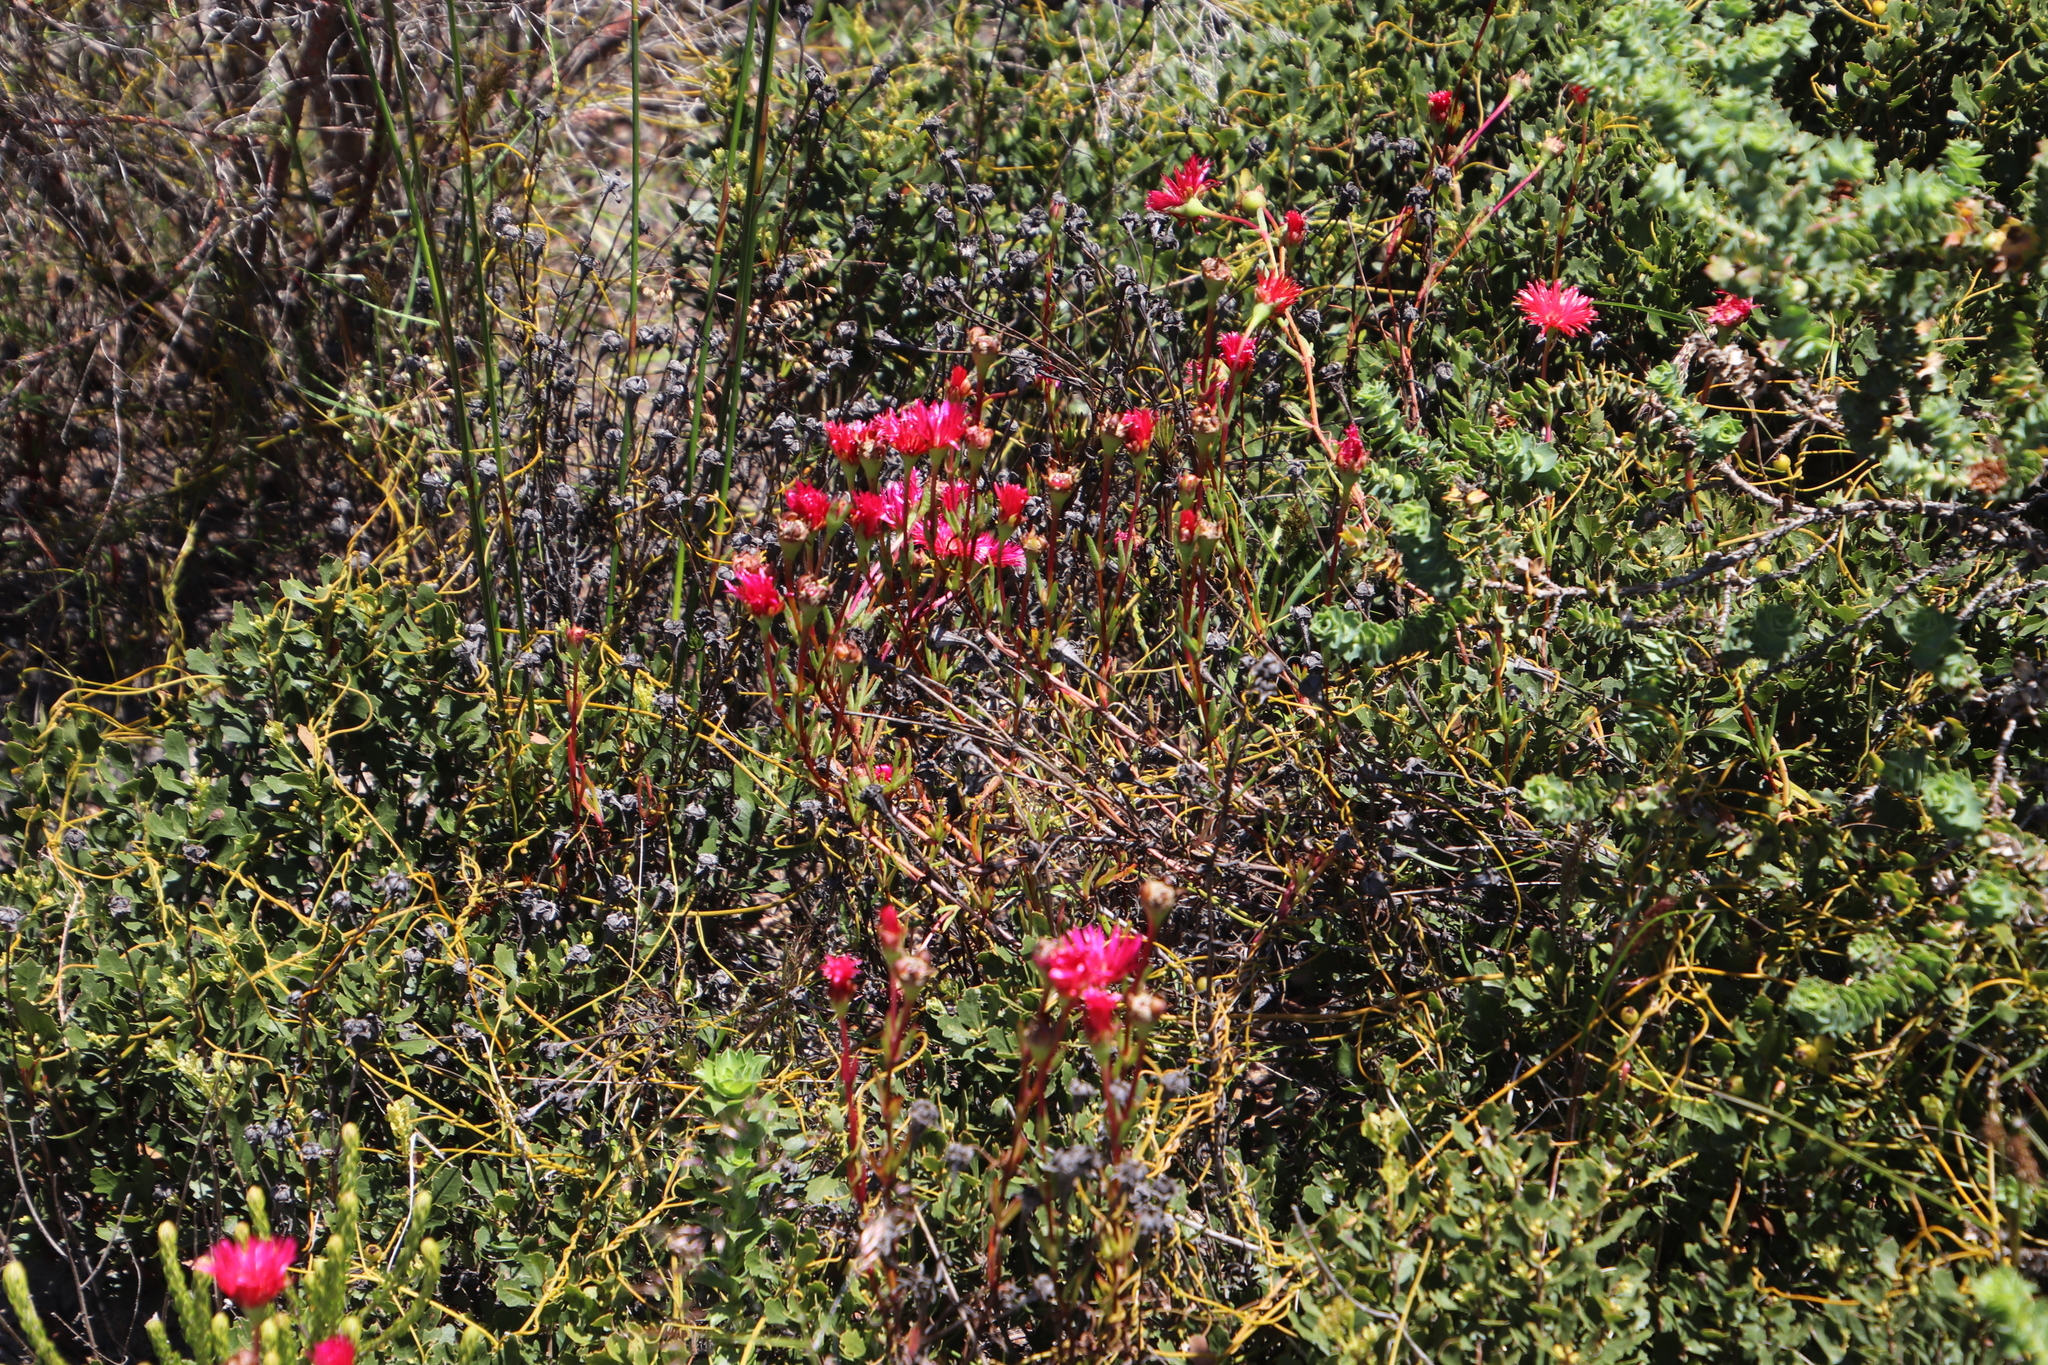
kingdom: Plantae
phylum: Tracheophyta
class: Magnoliopsida
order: Caryophyllales
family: Aizoaceae
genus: Lampranthus
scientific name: Lampranthus tenuifolius
